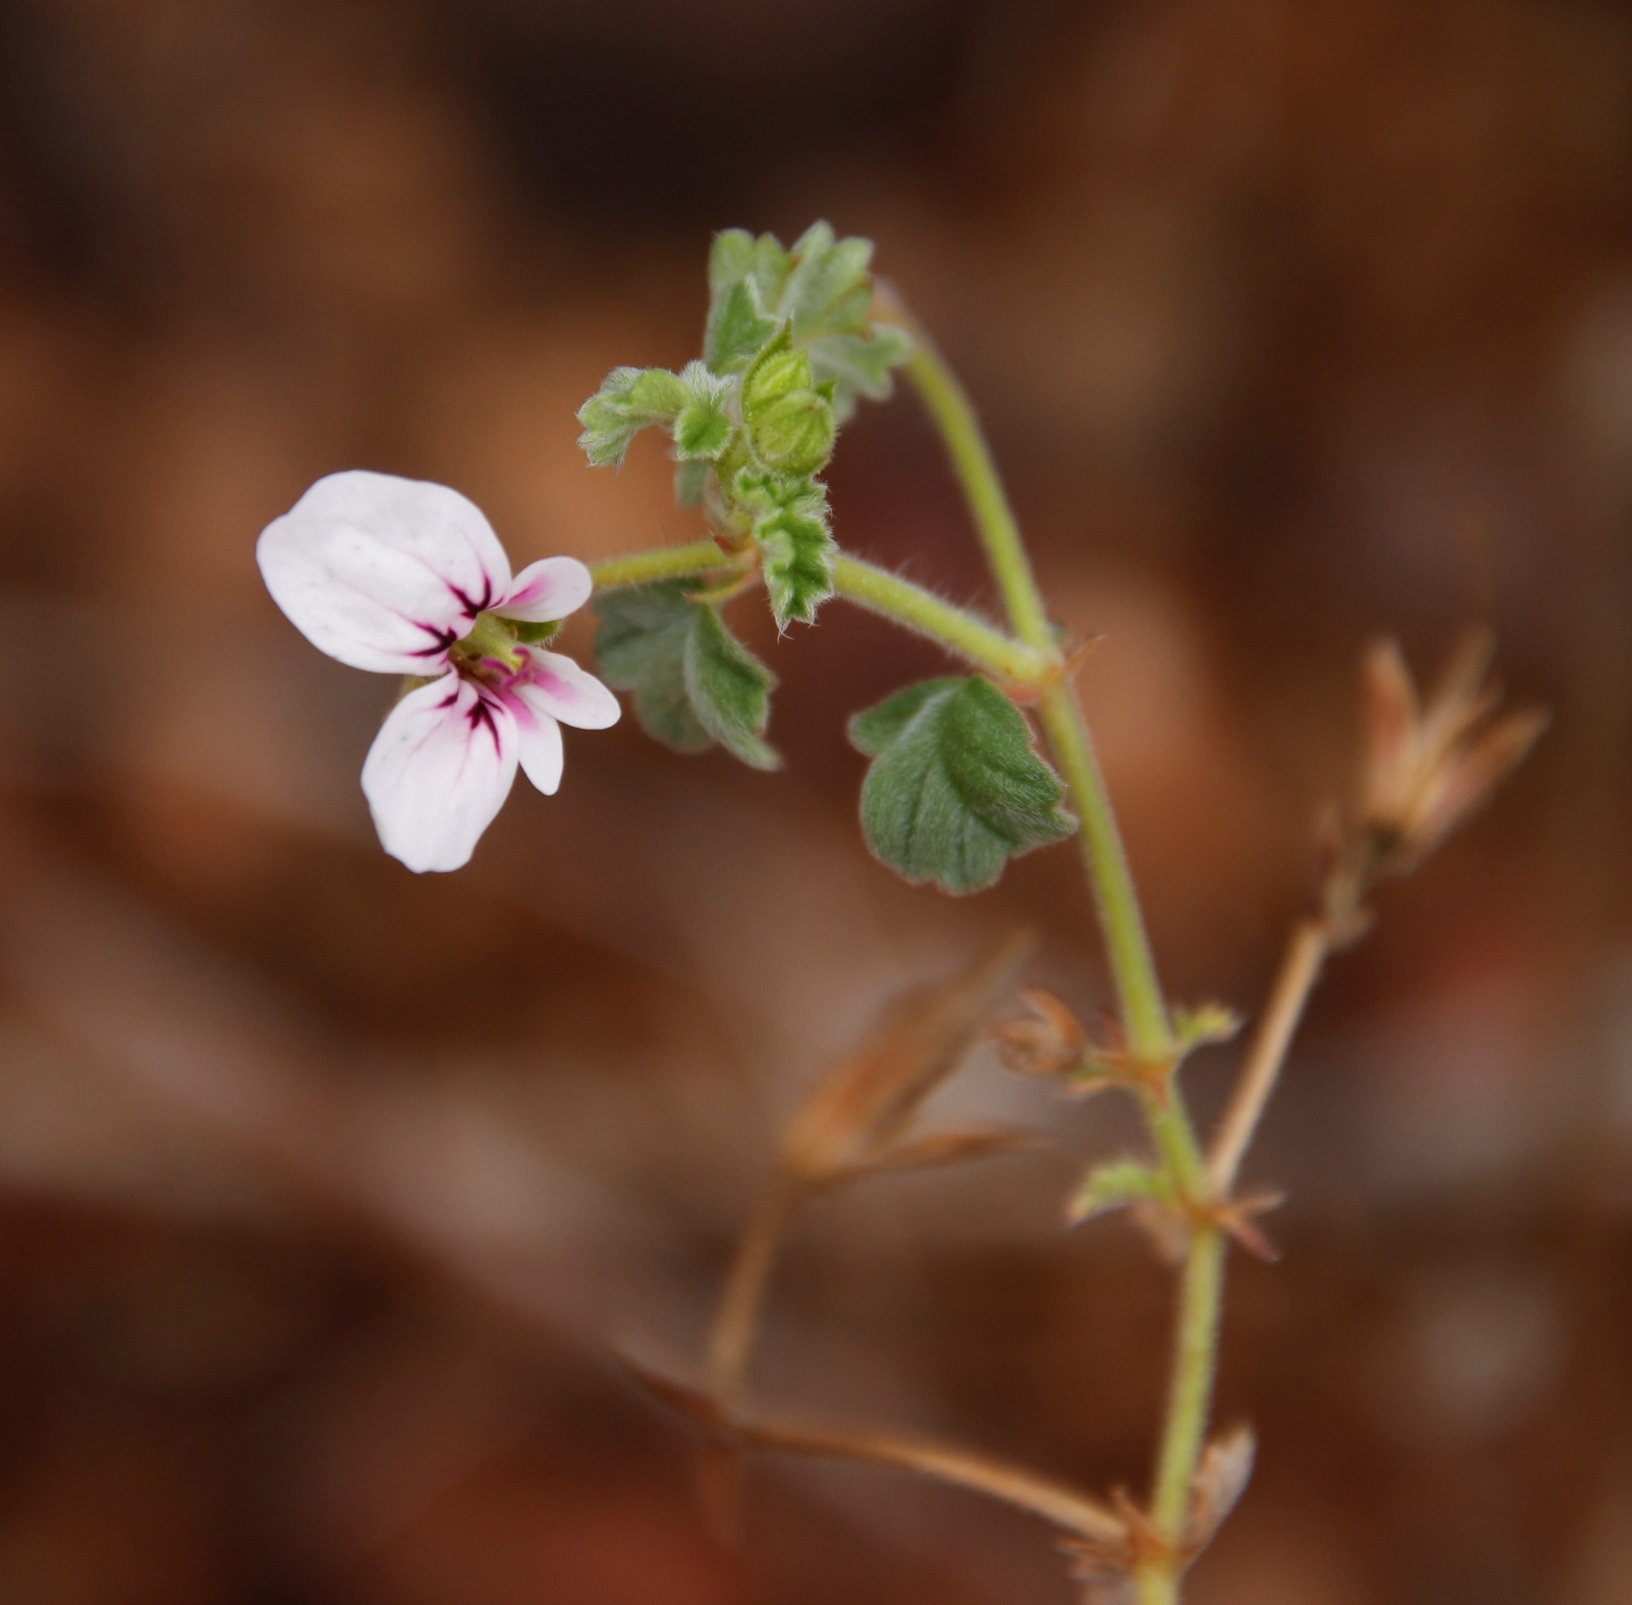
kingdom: Plantae
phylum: Tracheophyta
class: Magnoliopsida
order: Geraniales
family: Geraniaceae
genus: Pelargonium
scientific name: Pelargonium candicans
